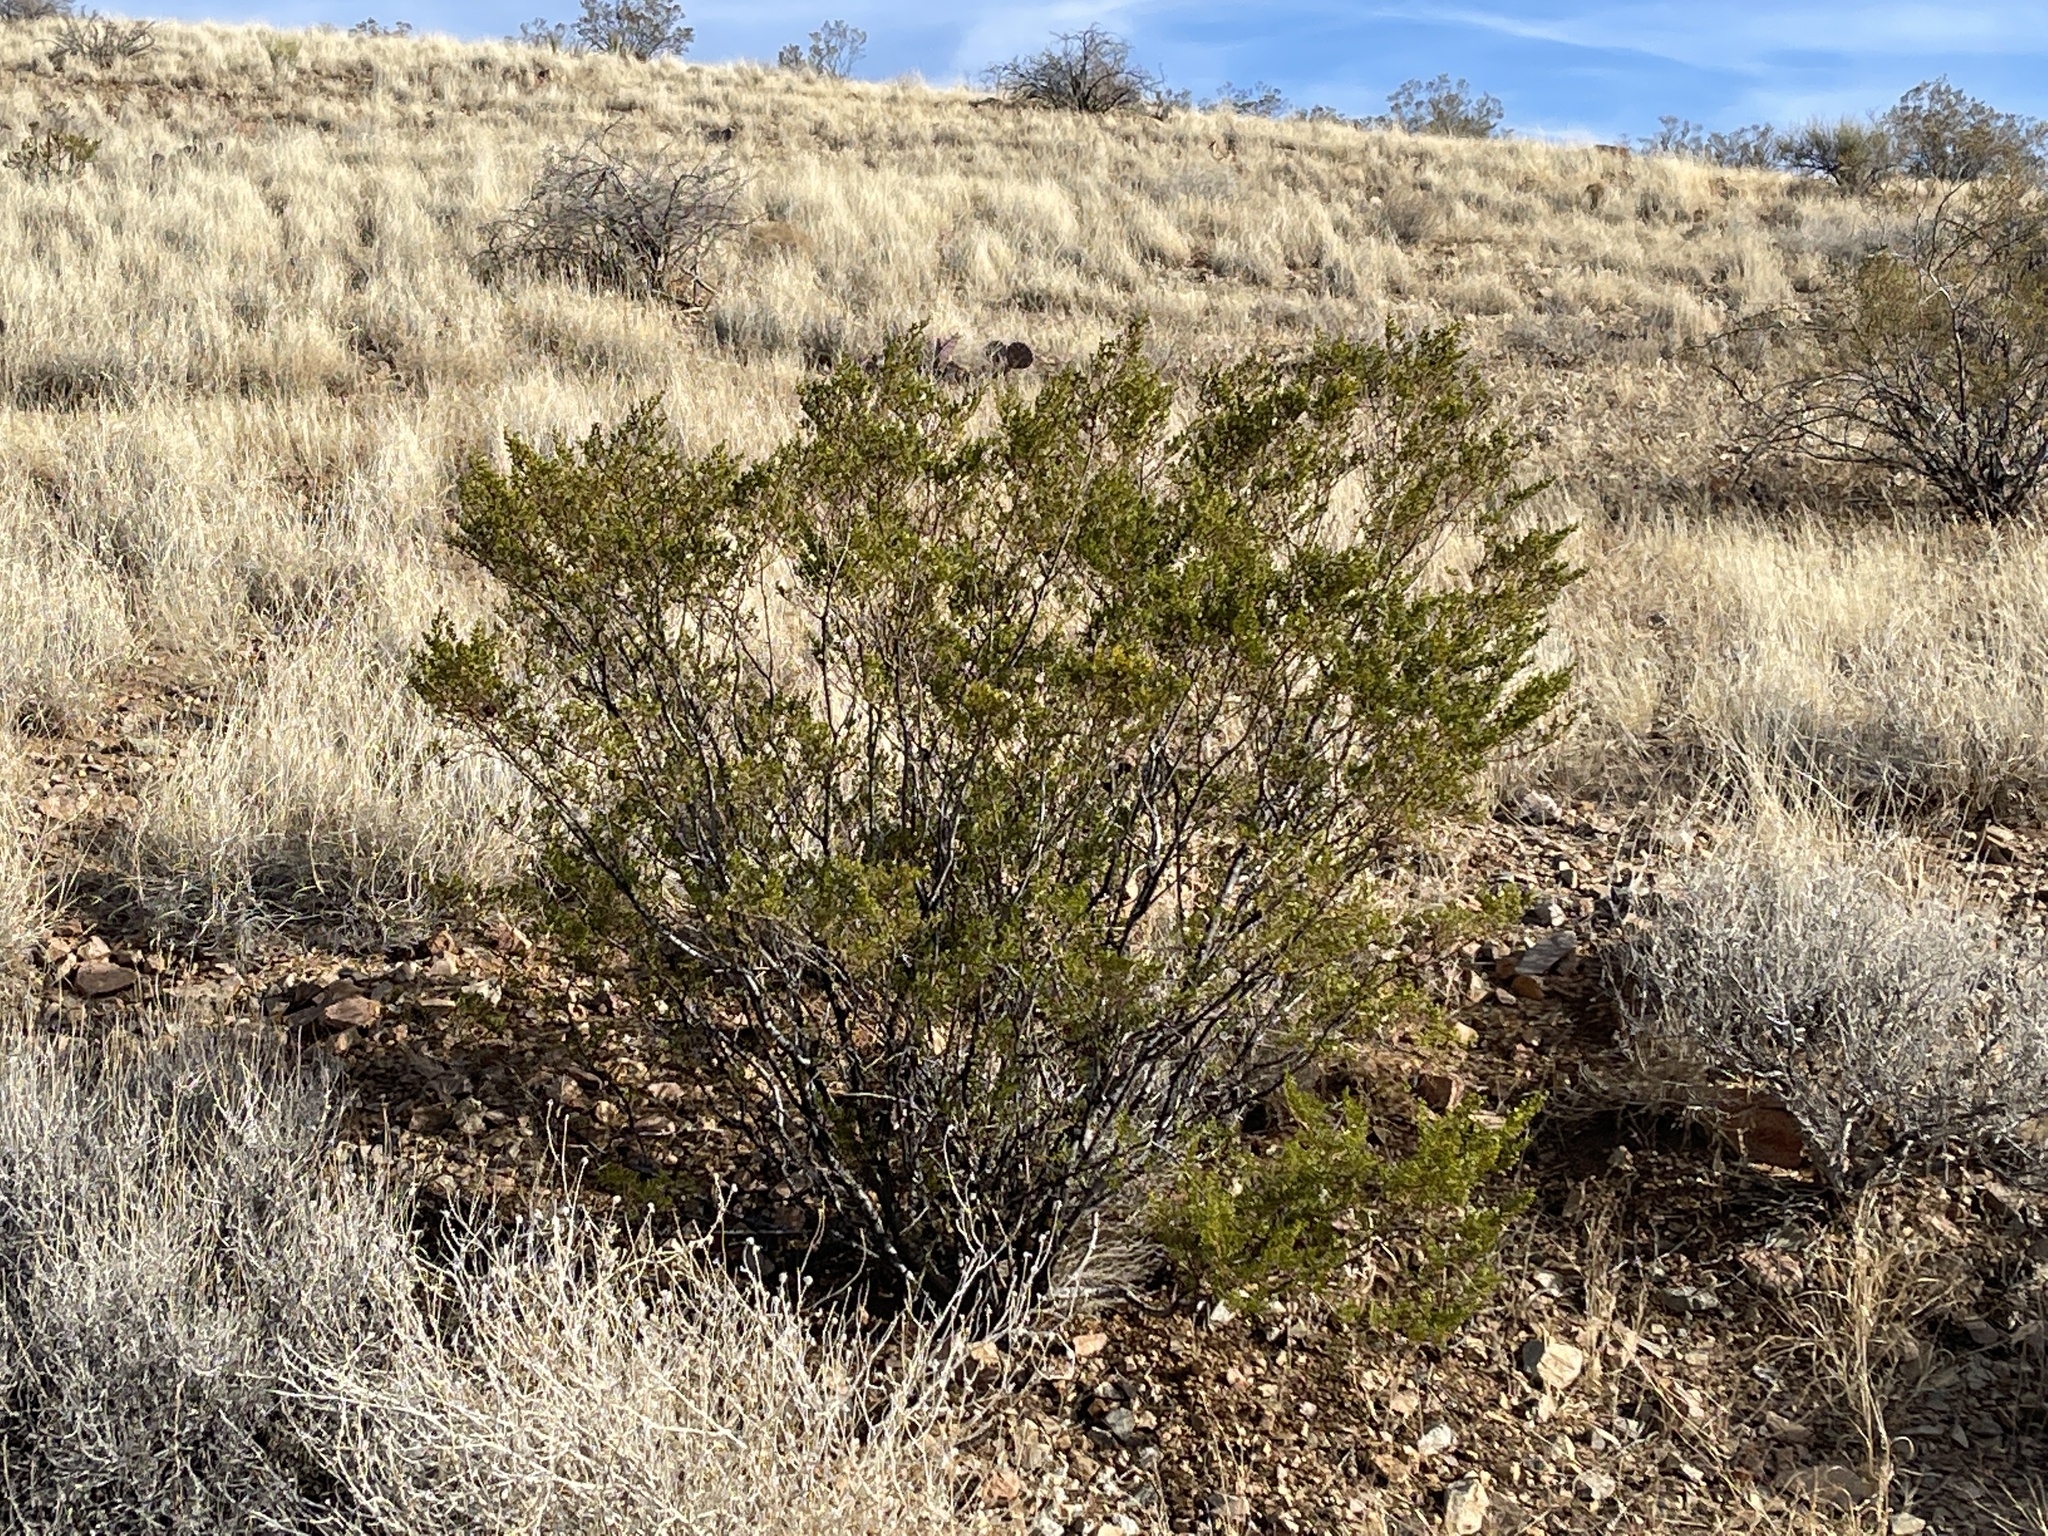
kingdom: Plantae
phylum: Tracheophyta
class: Magnoliopsida
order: Zygophyllales
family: Zygophyllaceae
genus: Larrea
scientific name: Larrea tridentata
